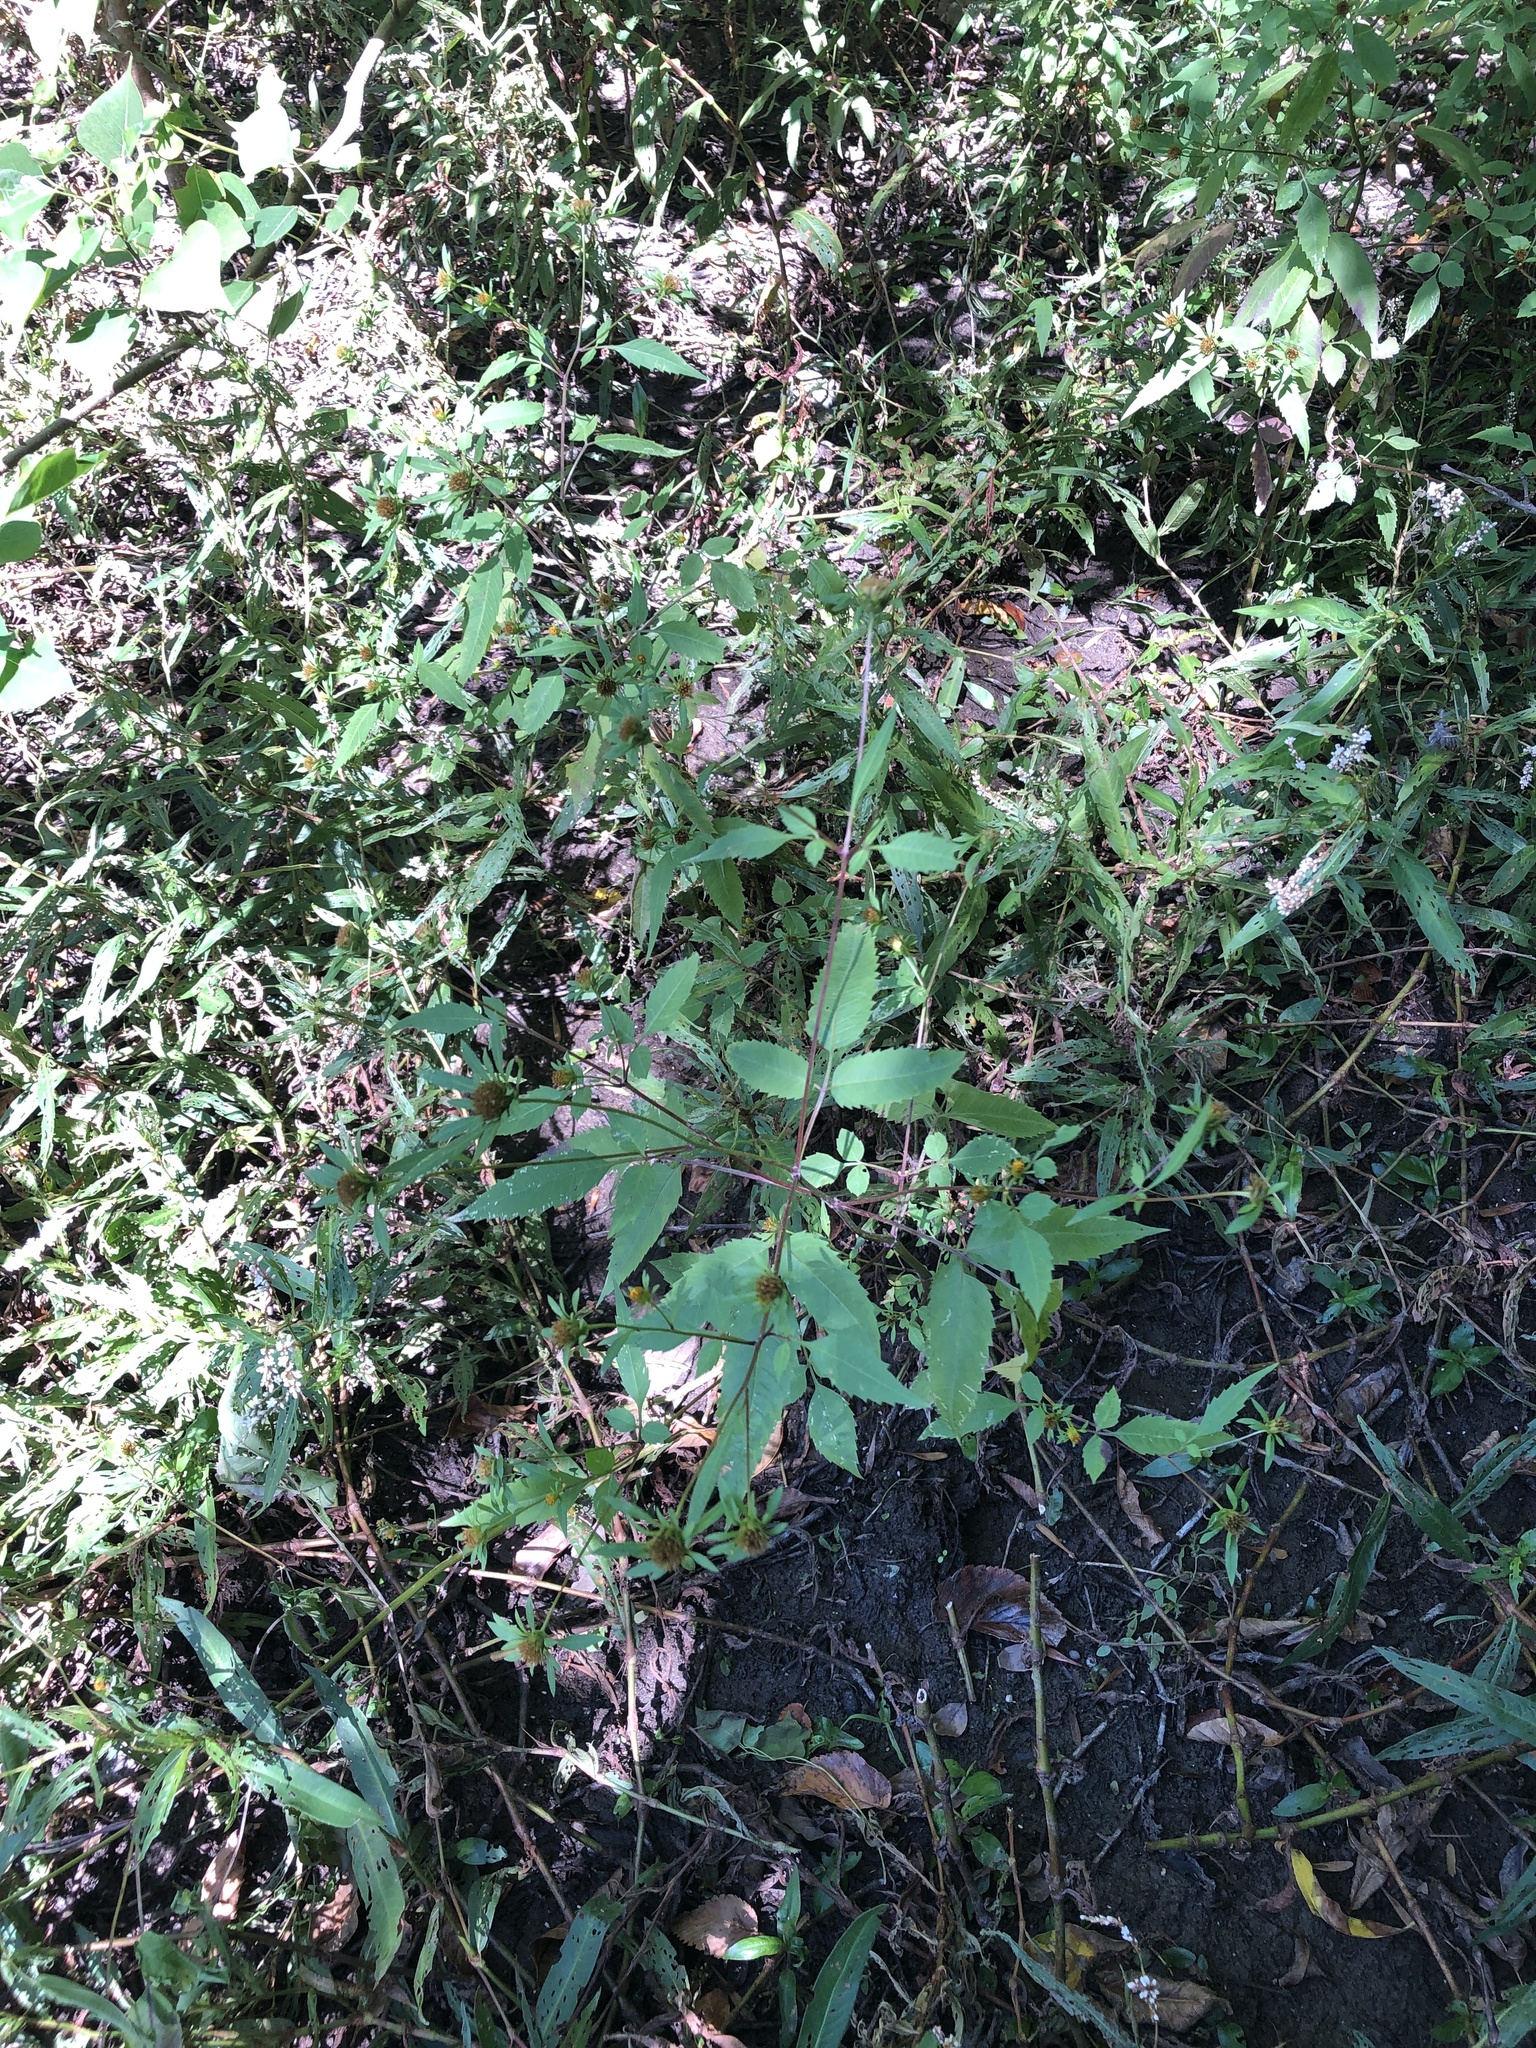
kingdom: Plantae
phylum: Tracheophyta
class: Magnoliopsida
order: Asterales
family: Asteraceae
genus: Bidens
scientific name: Bidens frondosa
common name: Beggarticks
